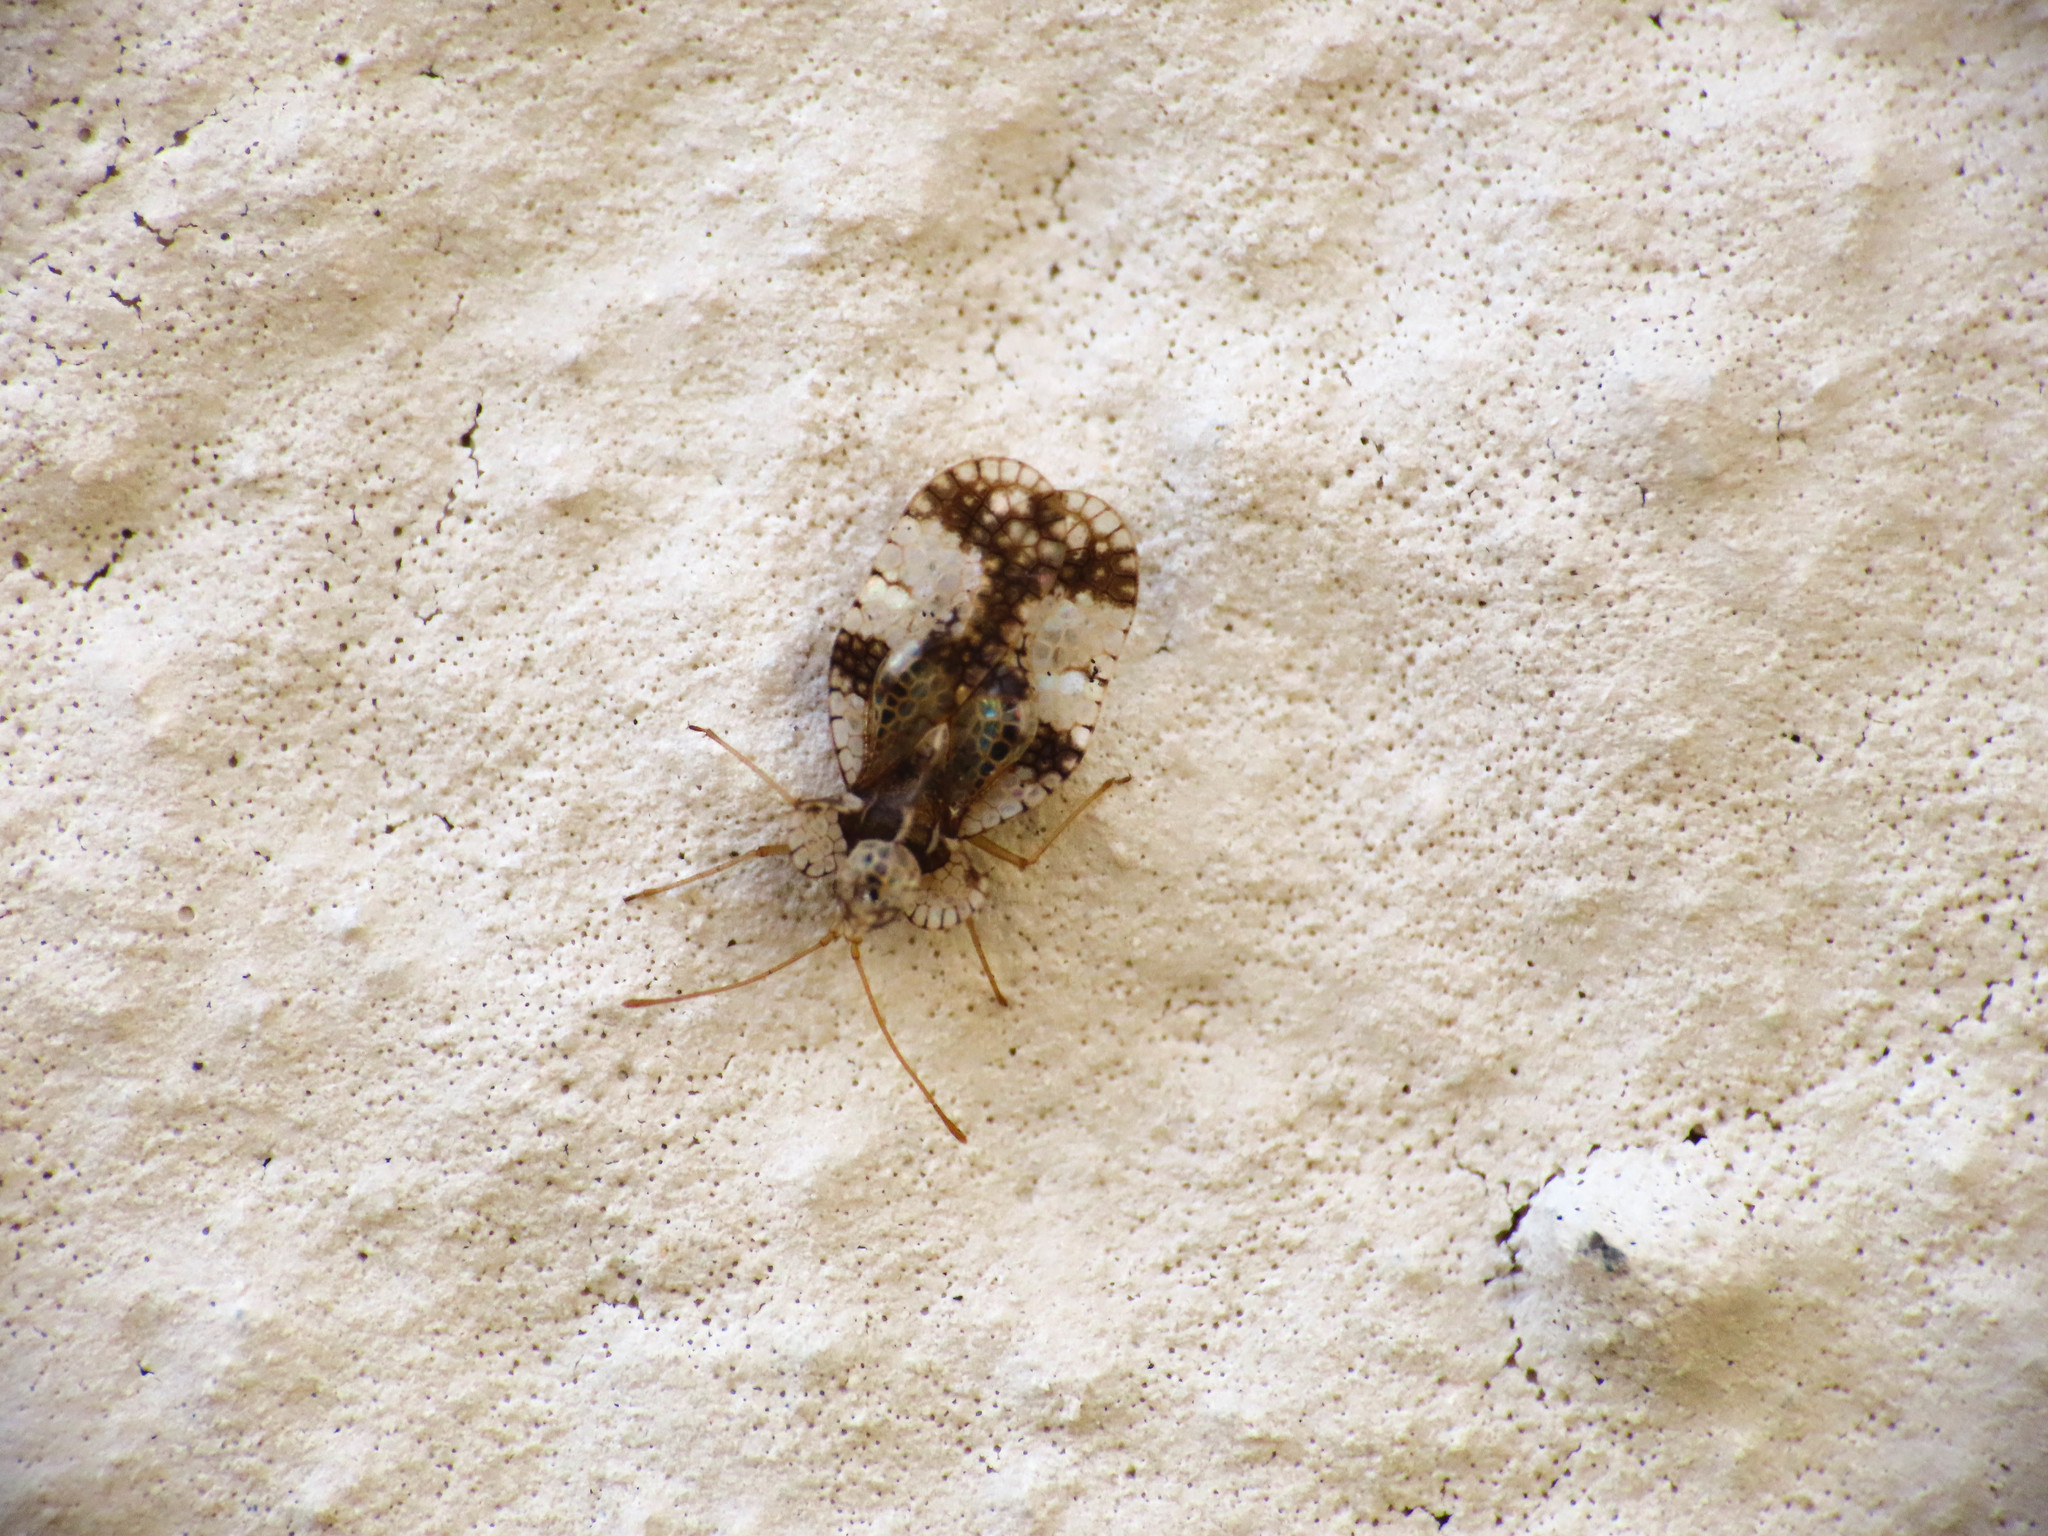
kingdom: Animalia
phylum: Arthropoda
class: Insecta
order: Hemiptera
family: Tingidae
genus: Stephanitis
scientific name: Stephanitis pyri
